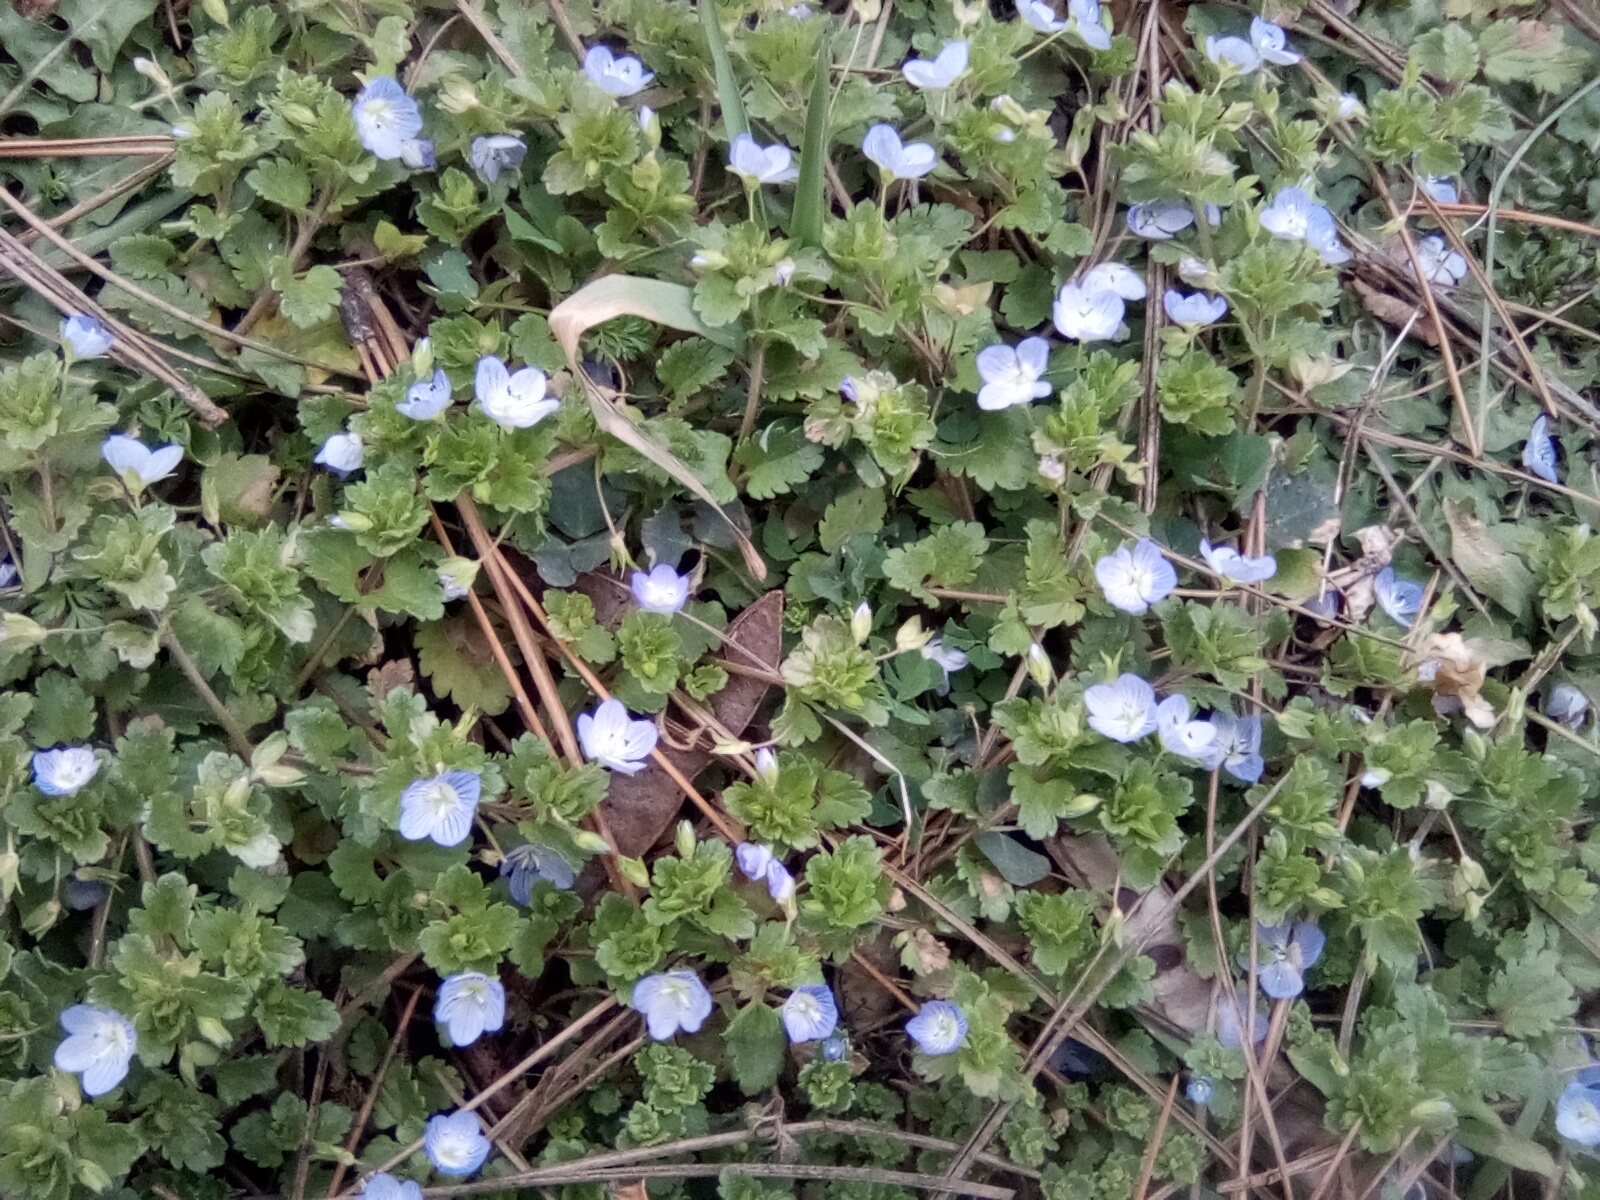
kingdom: Plantae
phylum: Tracheophyta
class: Magnoliopsida
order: Lamiales
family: Plantaginaceae
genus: Veronica
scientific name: Veronica persica
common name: Common field-speedwell
